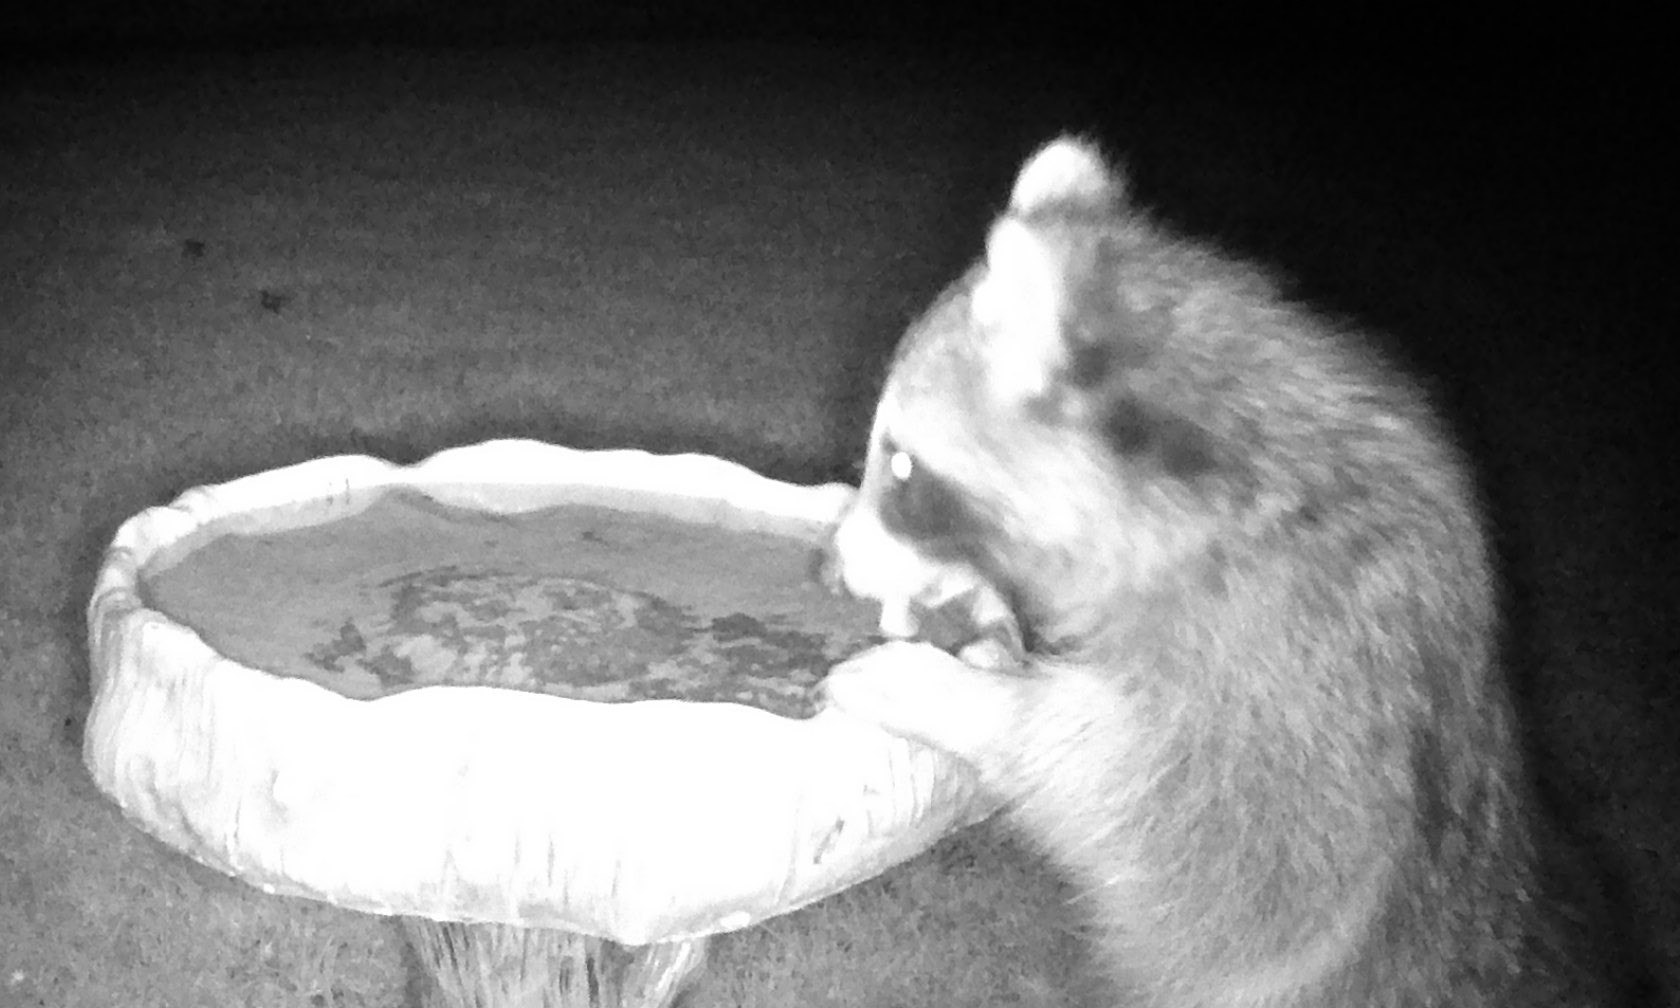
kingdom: Animalia
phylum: Chordata
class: Mammalia
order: Carnivora
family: Procyonidae
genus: Procyon
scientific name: Procyon lotor
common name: Raccoon
